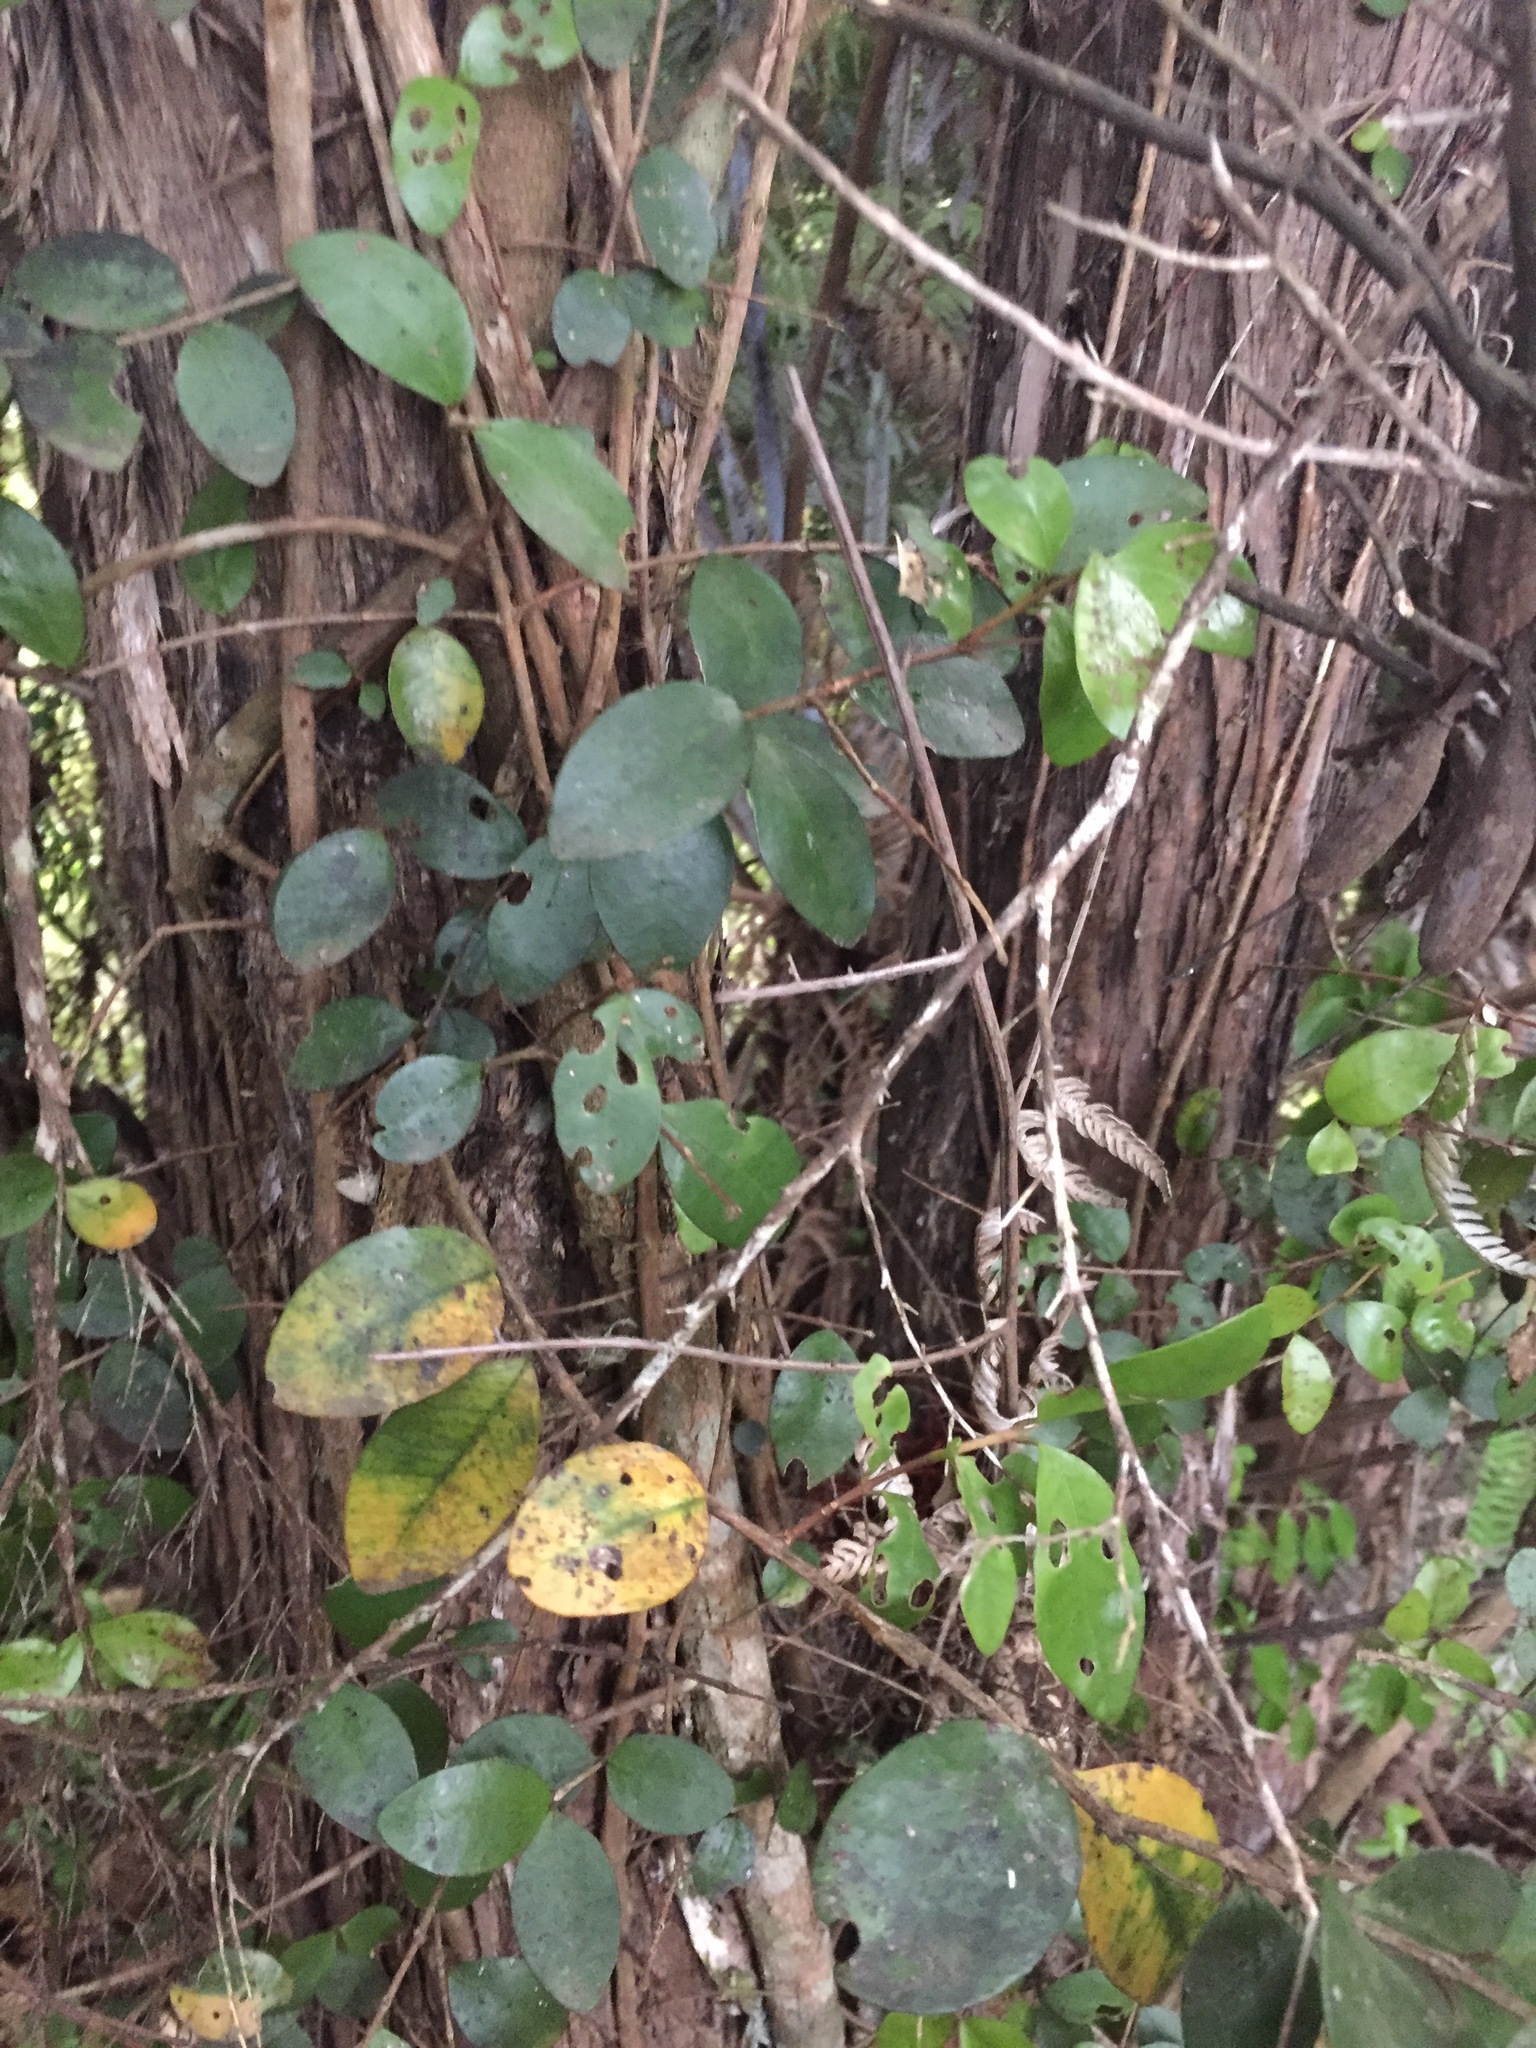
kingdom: Plantae
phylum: Tracheophyta
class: Magnoliopsida
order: Myrtales
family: Myrtaceae
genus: Metrosideros
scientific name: Metrosideros fulgens
